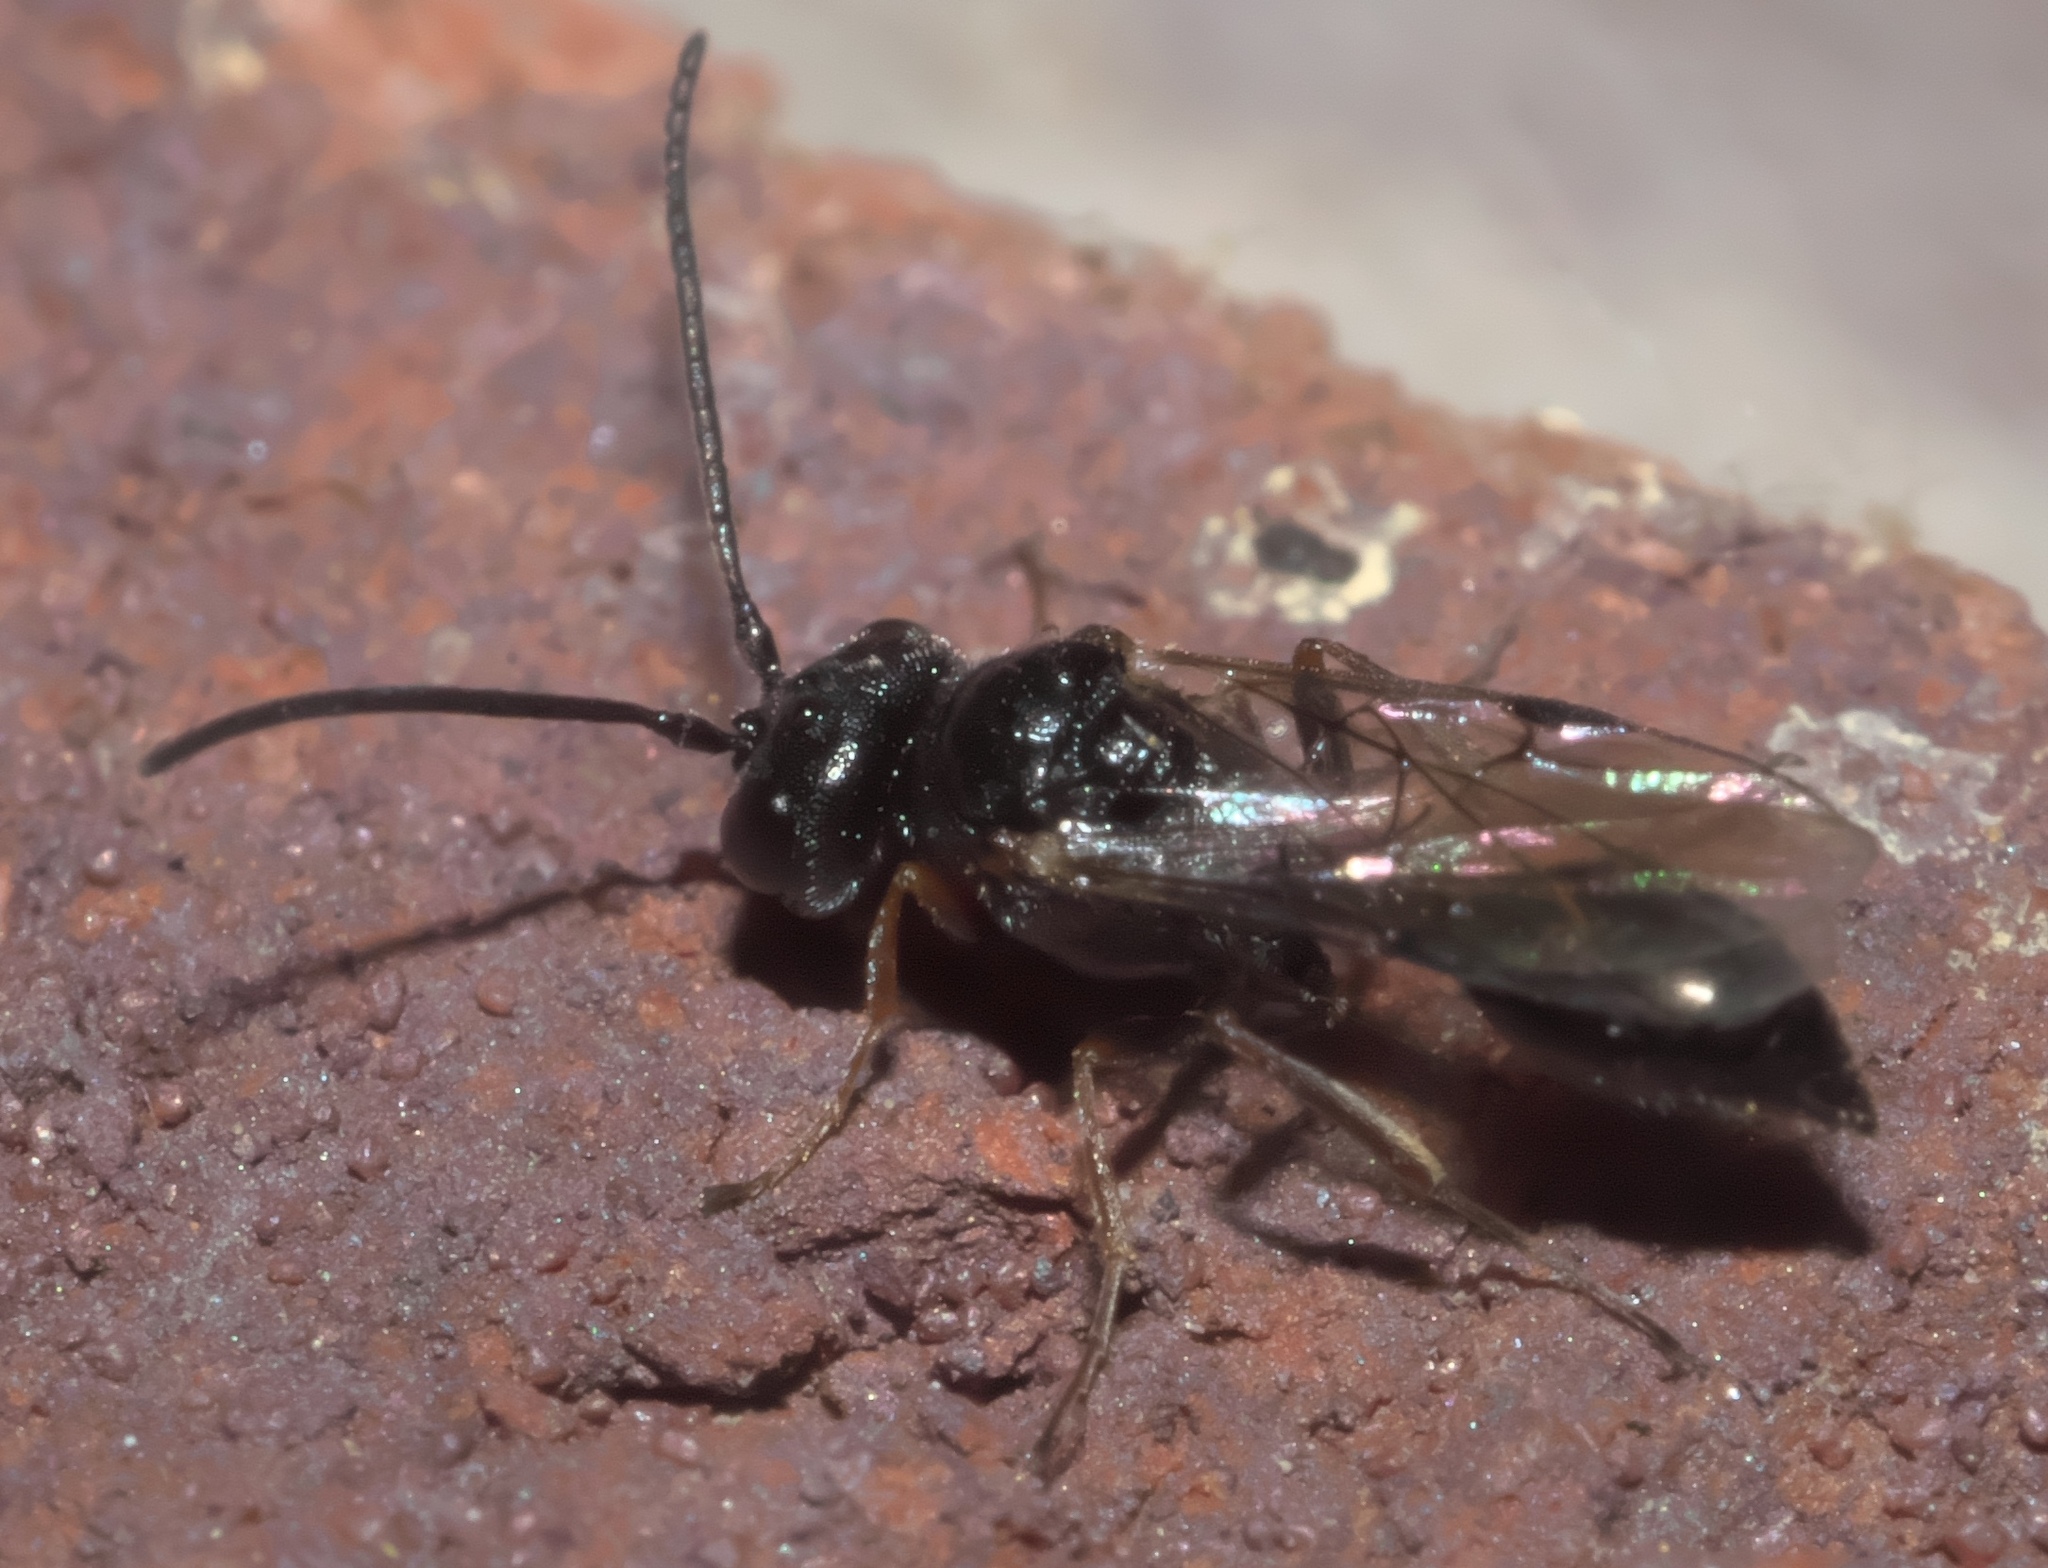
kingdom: Animalia
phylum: Arthropoda
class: Insecta
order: Hymenoptera
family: Heloridae
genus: Helorus
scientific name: Helorus anomalipes
